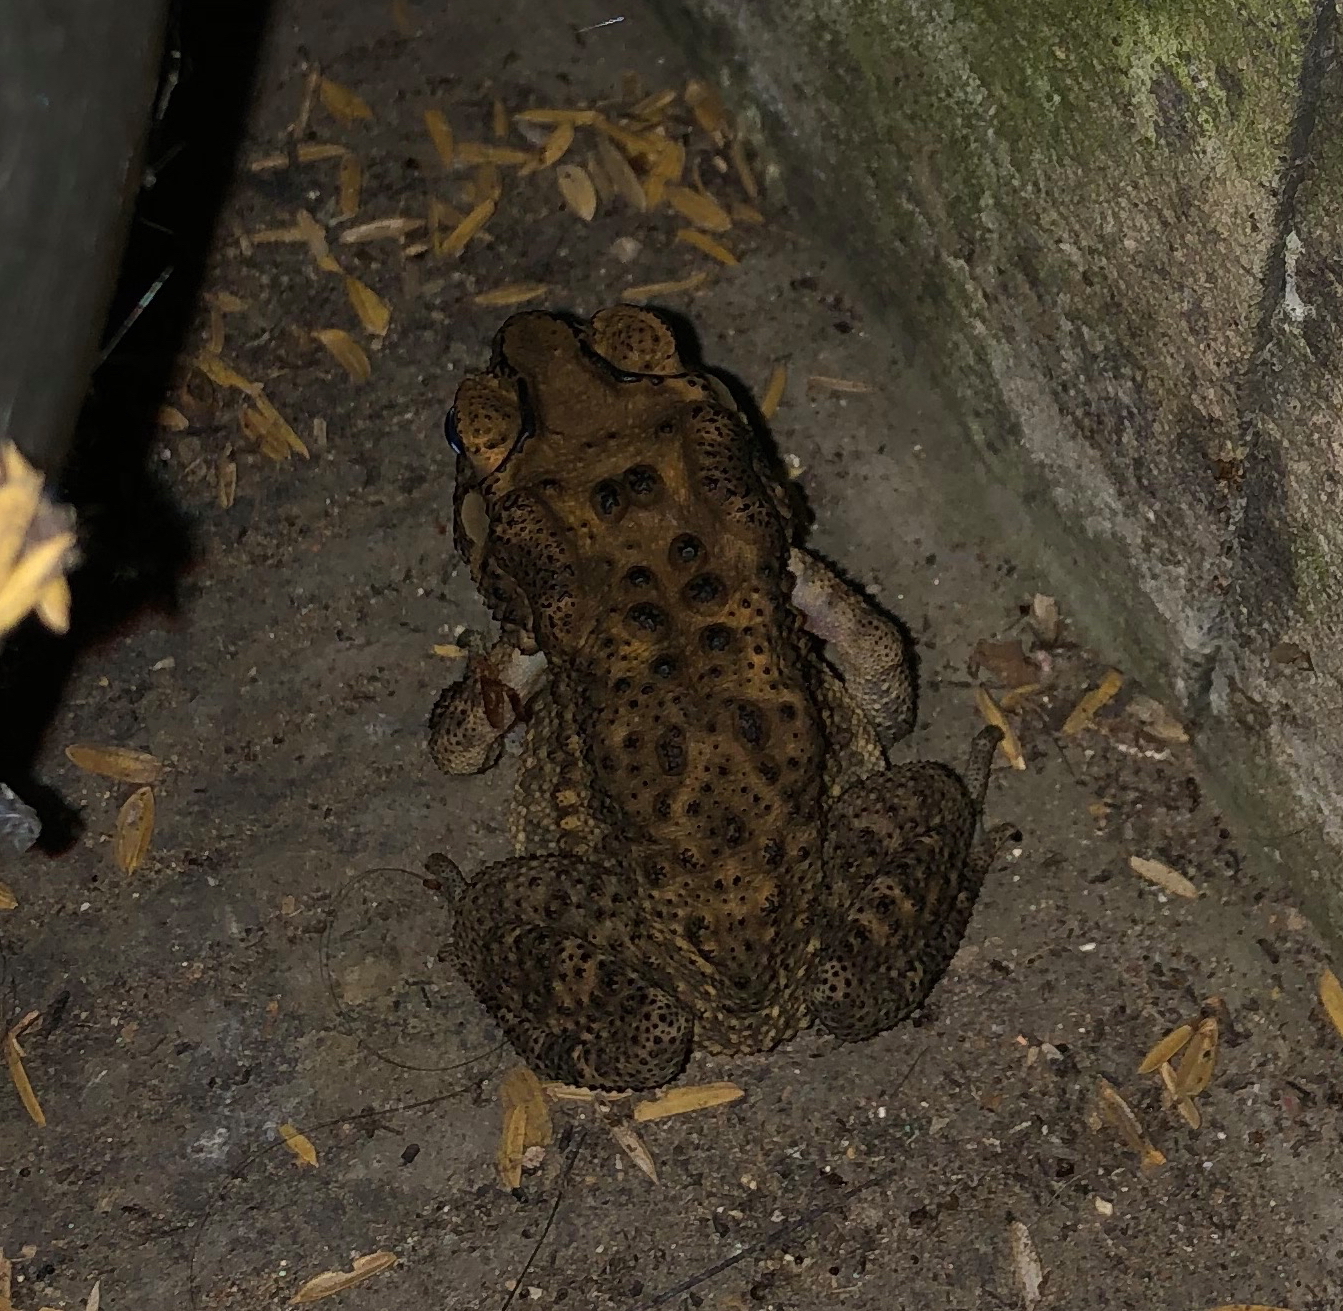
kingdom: Animalia
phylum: Chordata
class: Amphibia
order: Anura
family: Bufonidae
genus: Duttaphrynus
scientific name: Duttaphrynus melanostictus
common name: Common sunda toad
